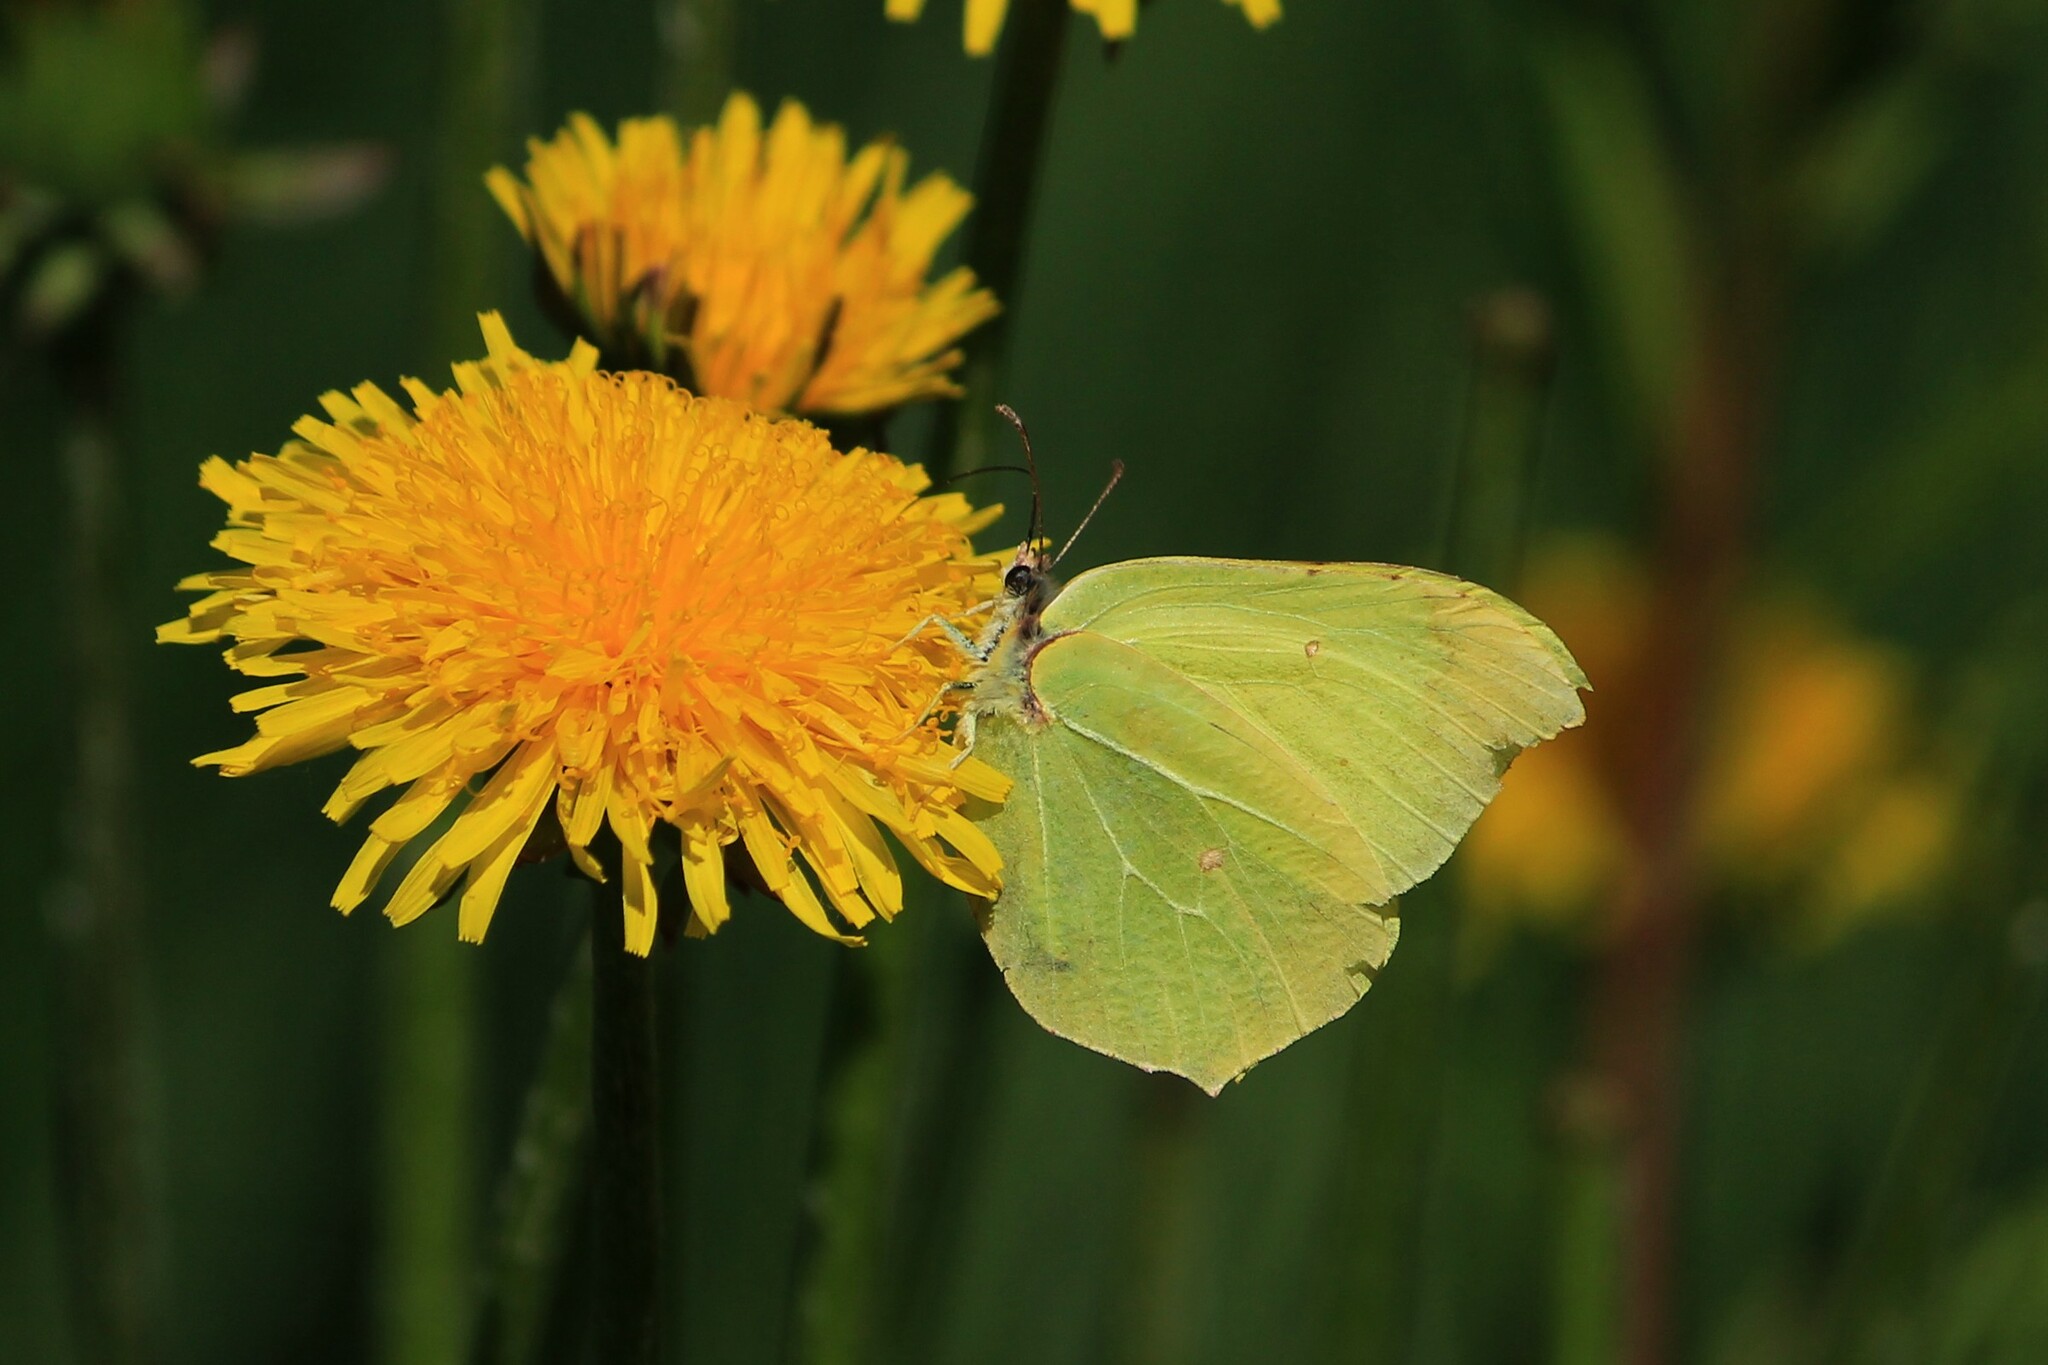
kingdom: Animalia
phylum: Arthropoda
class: Insecta
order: Lepidoptera
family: Pieridae
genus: Gonepteryx
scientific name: Gonepteryx rhamni
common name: Brimstone
